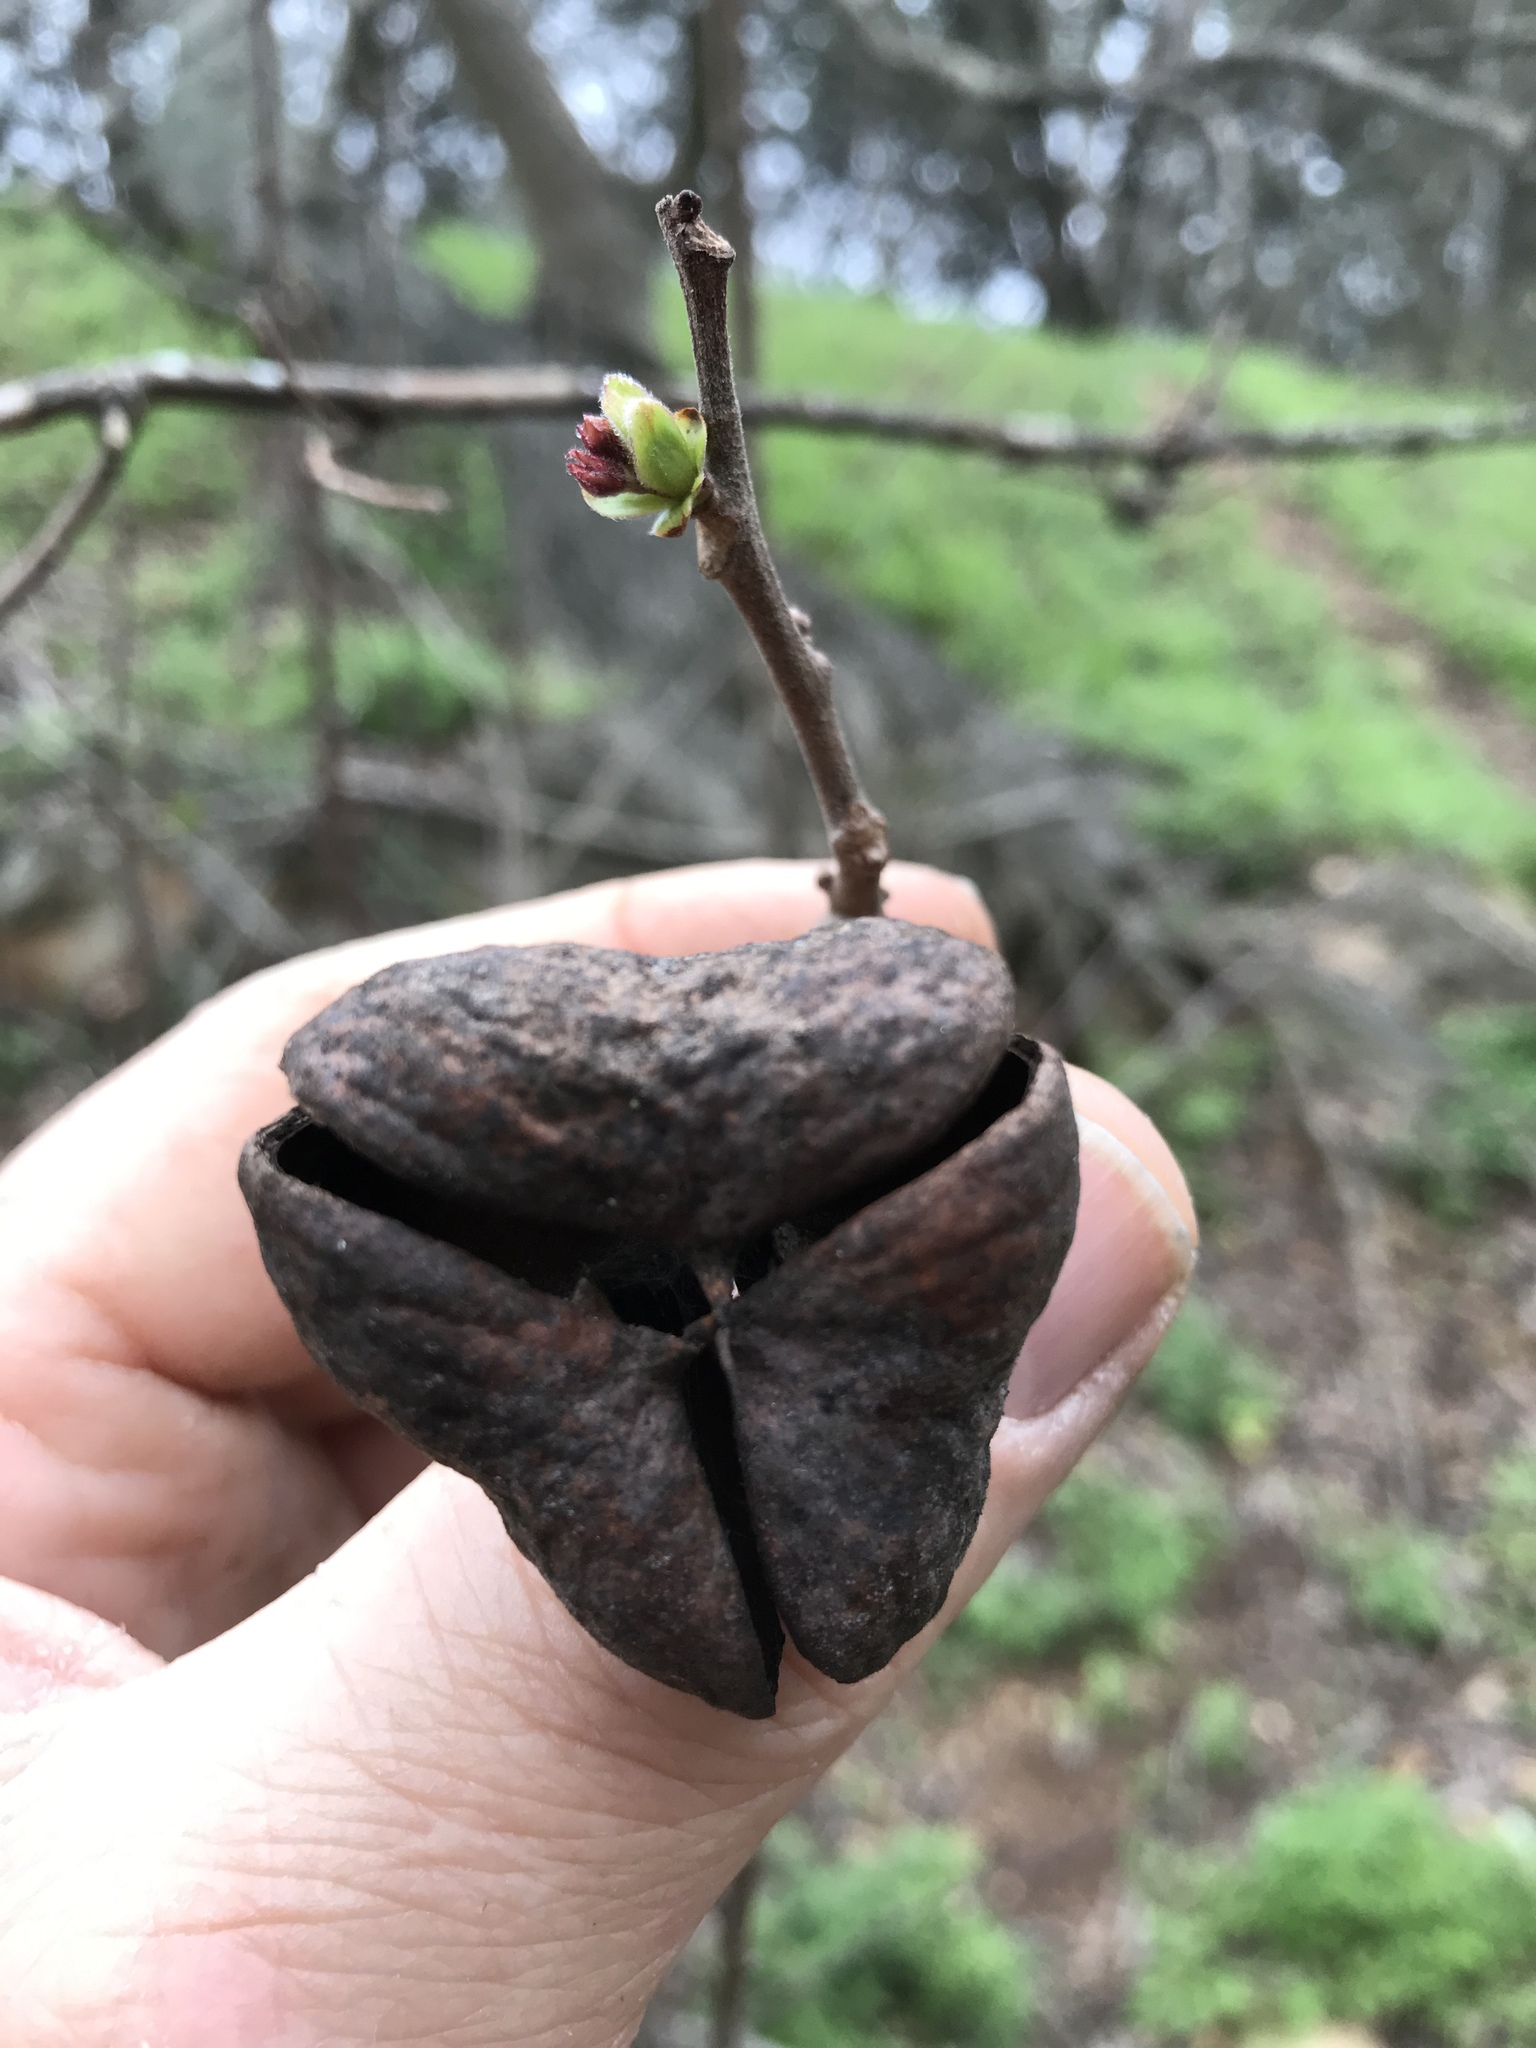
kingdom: Plantae
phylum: Tracheophyta
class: Magnoliopsida
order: Sapindales
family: Sapindaceae
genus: Ungnadia
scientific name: Ungnadia speciosa
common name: Texas-buckeye
